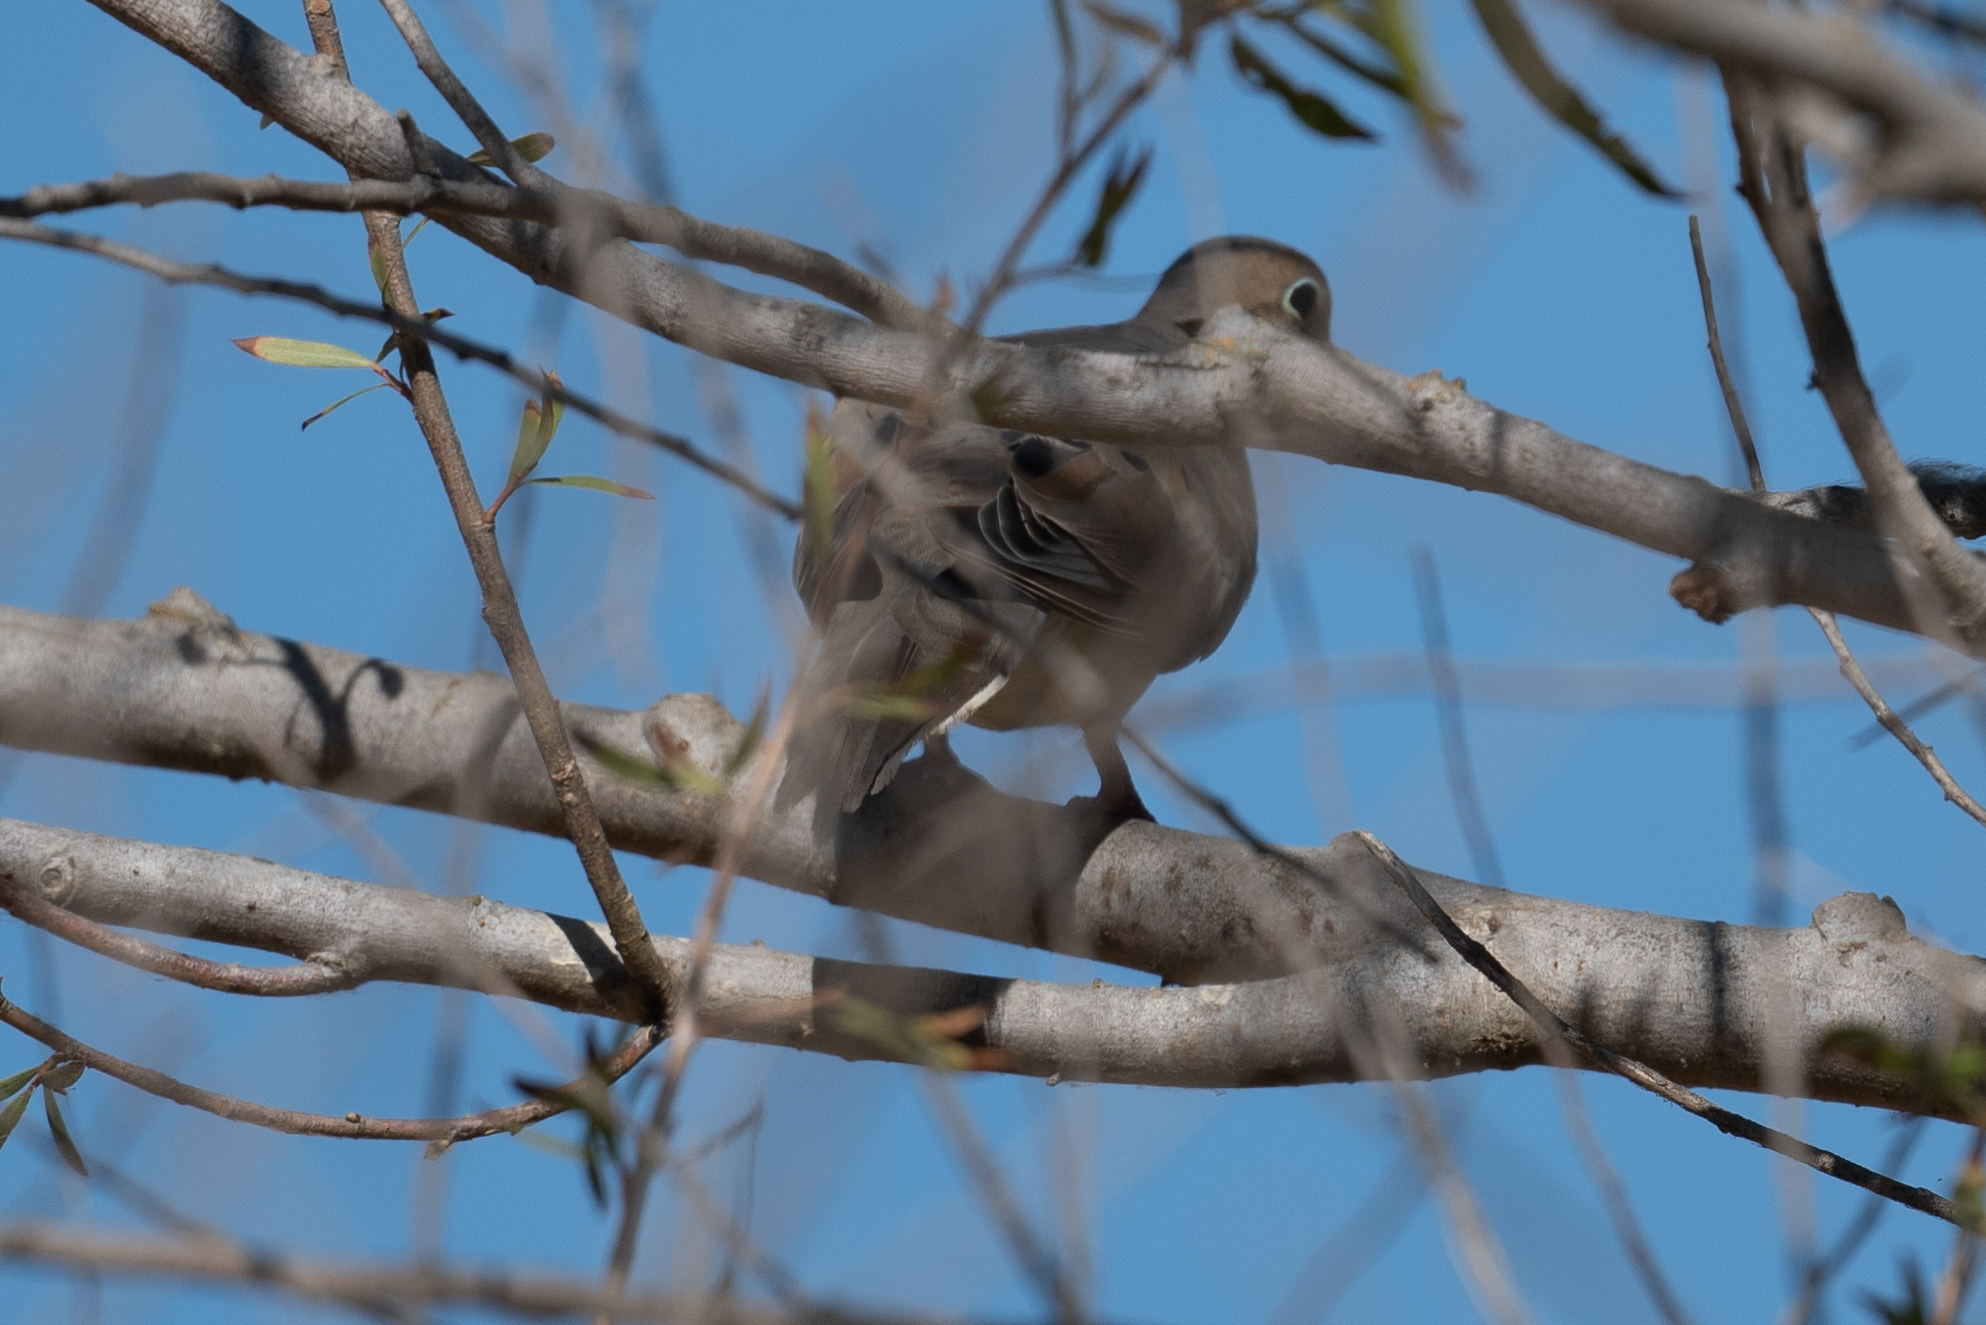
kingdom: Animalia
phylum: Chordata
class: Aves
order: Columbiformes
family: Columbidae
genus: Zenaida
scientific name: Zenaida macroura
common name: Mourning dove
